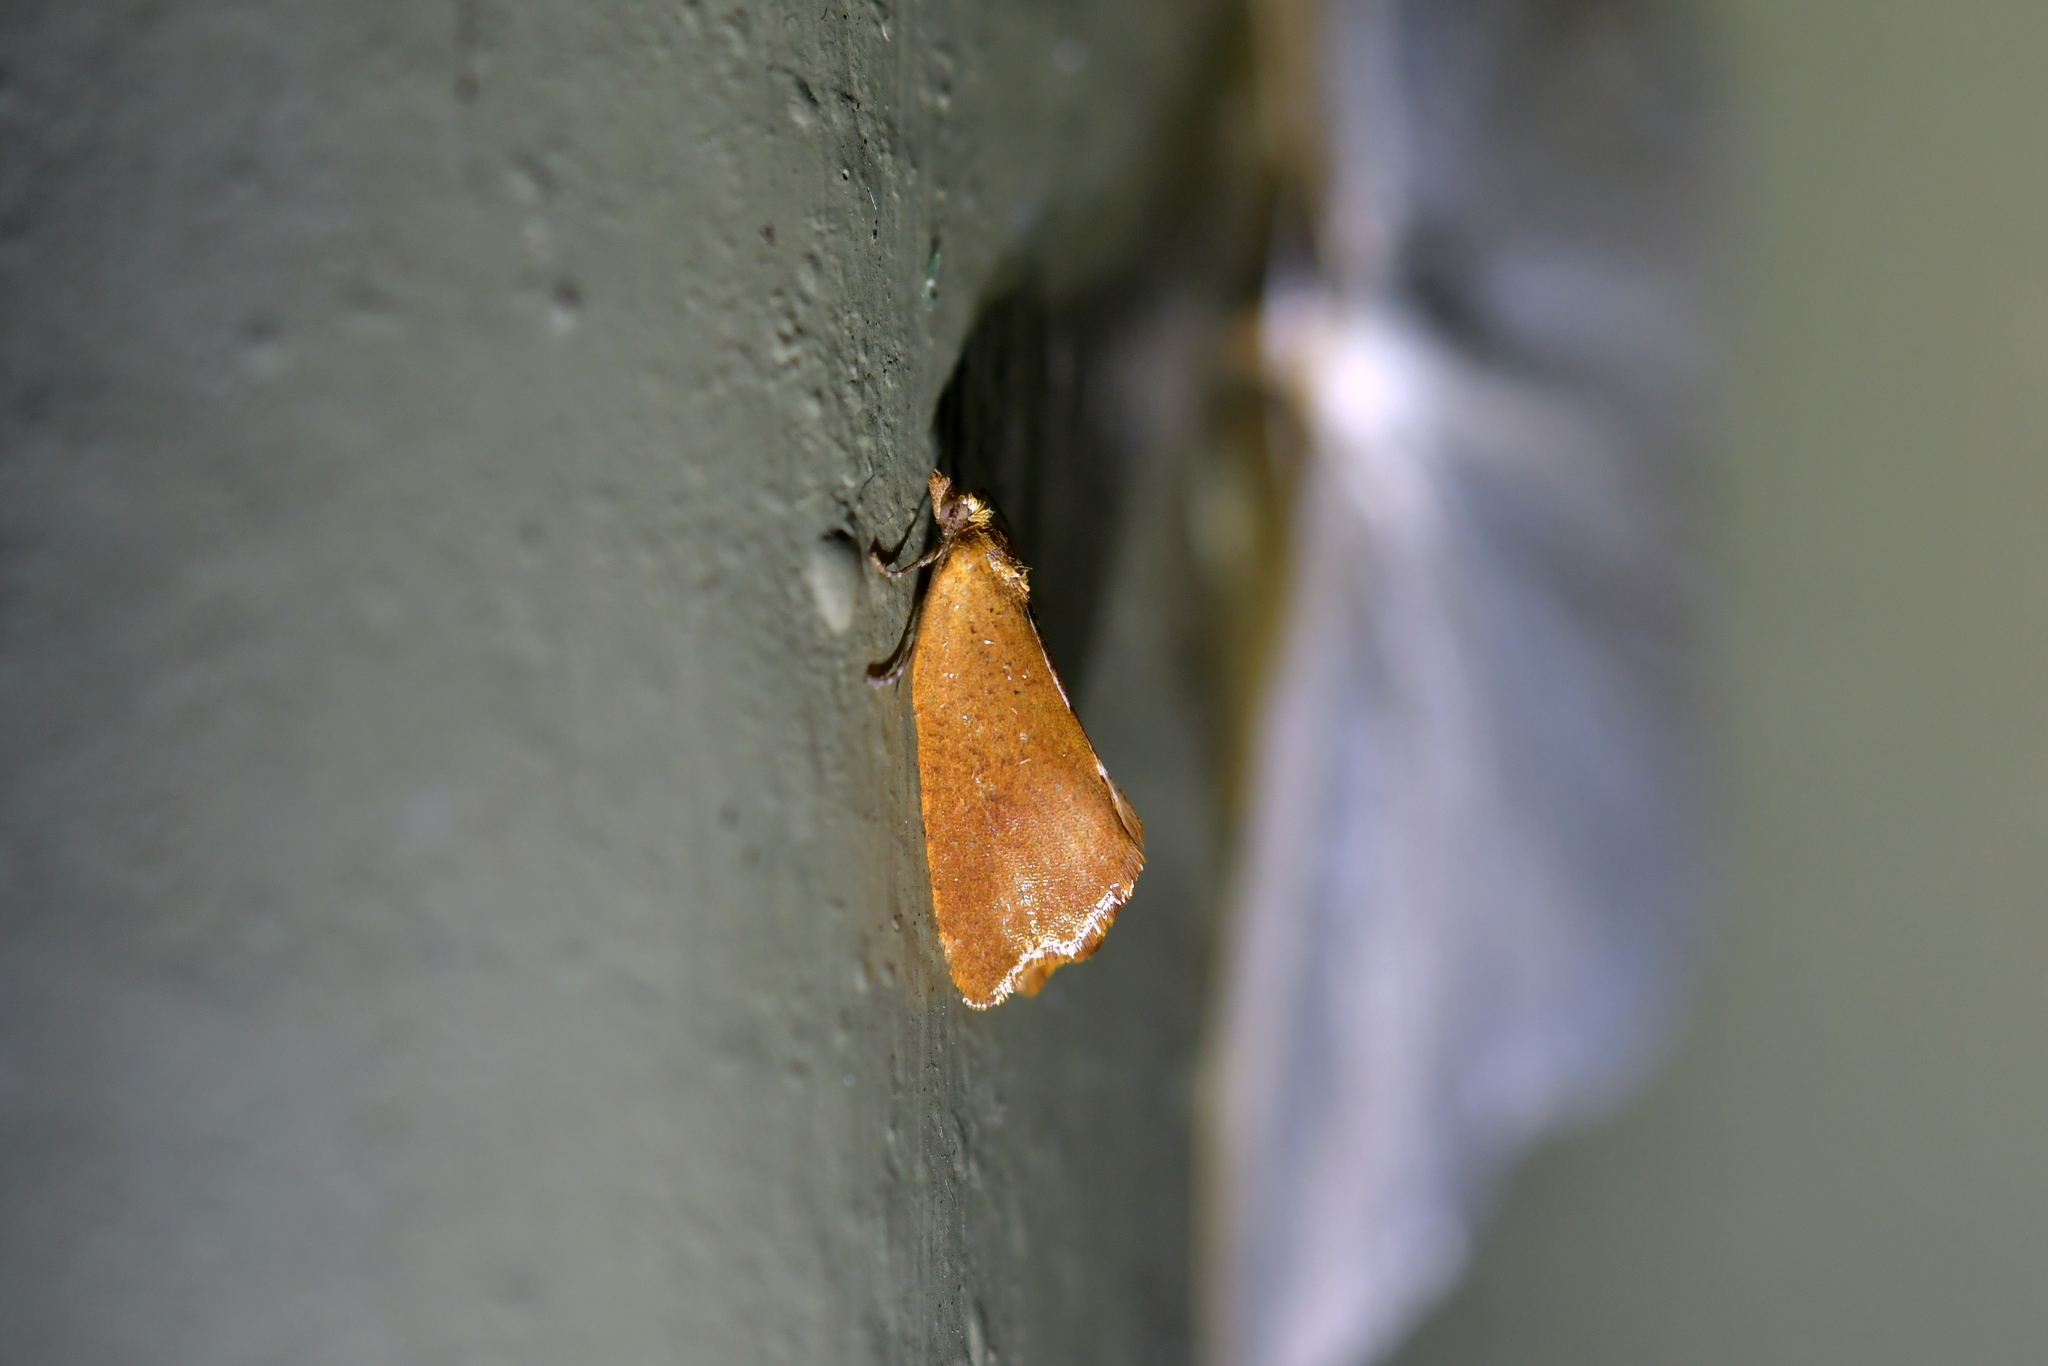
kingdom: Animalia
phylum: Arthropoda
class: Insecta
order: Lepidoptera
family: Tortricidae
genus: Pyrgotis
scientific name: Pyrgotis pyramidias
